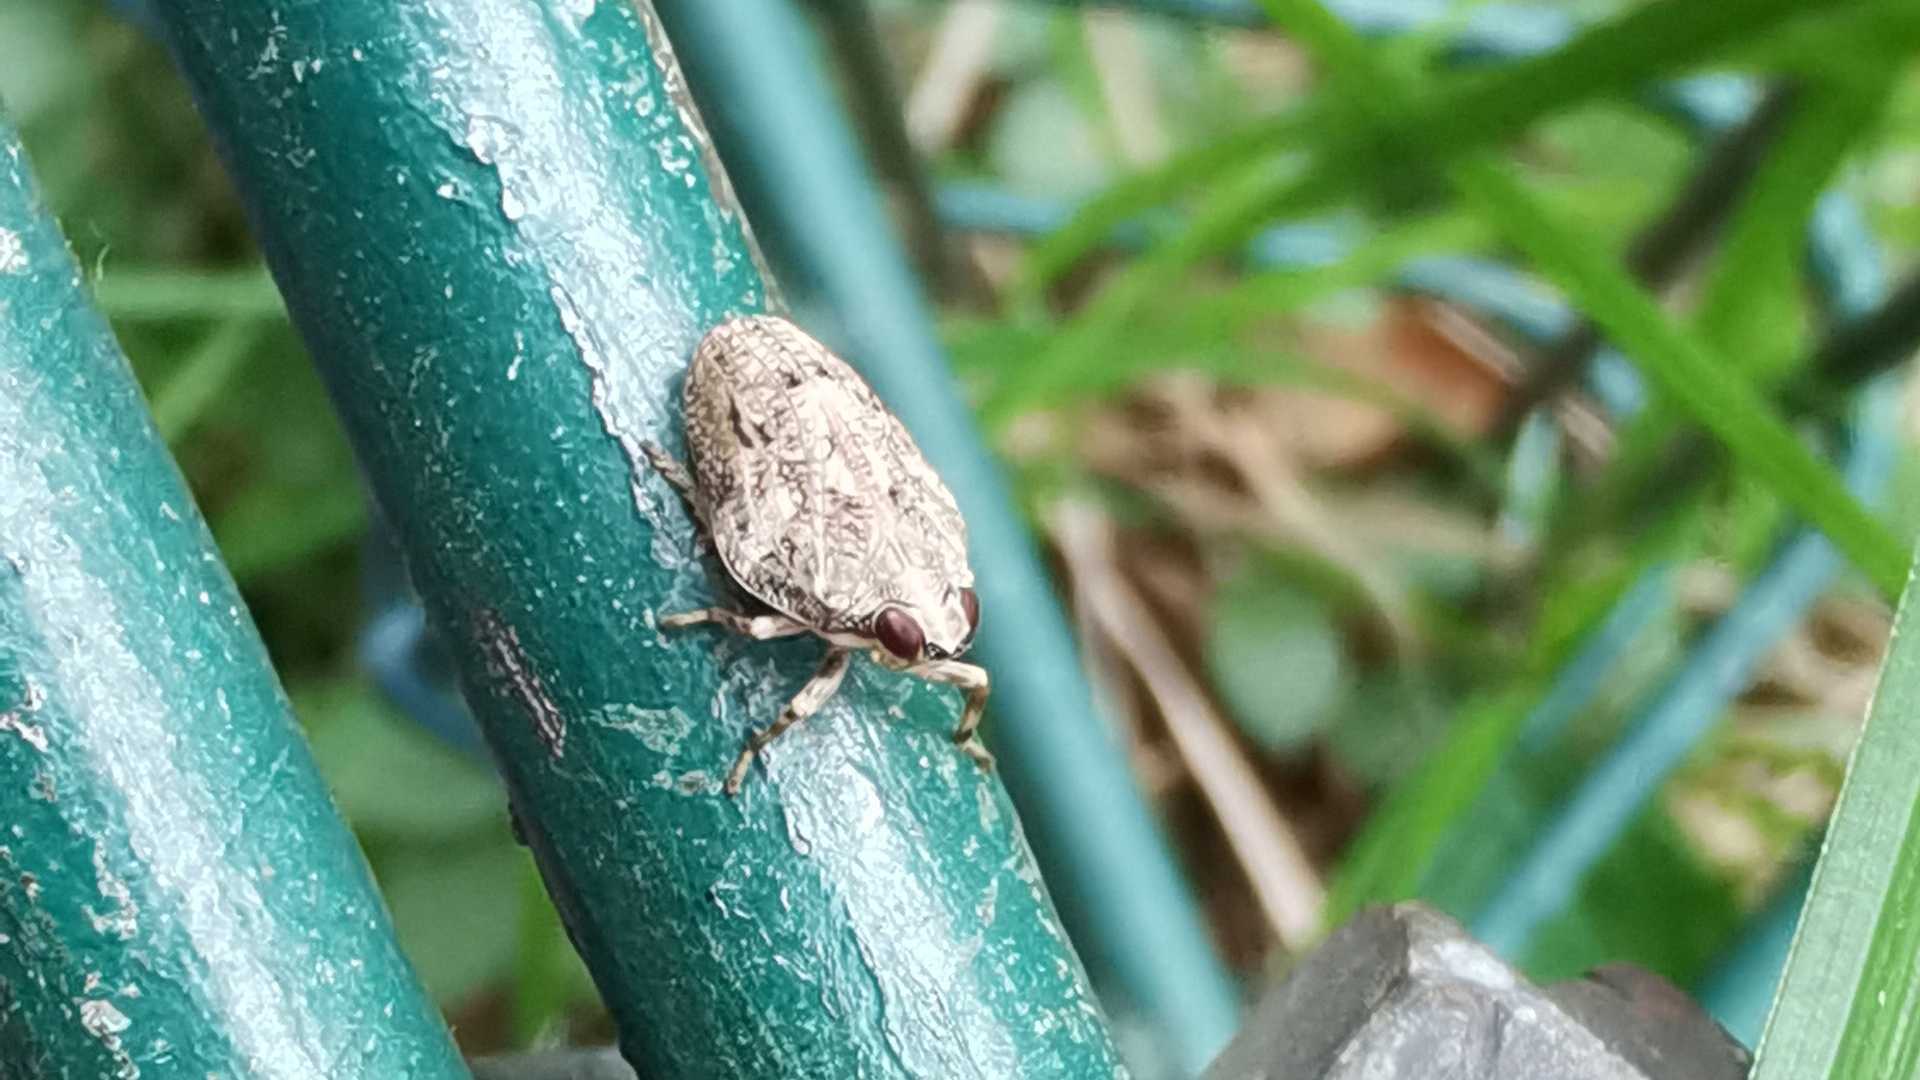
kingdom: Animalia
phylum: Arthropoda
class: Insecta
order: Hemiptera
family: Issidae
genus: Issus
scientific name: Issus coleoptratus
